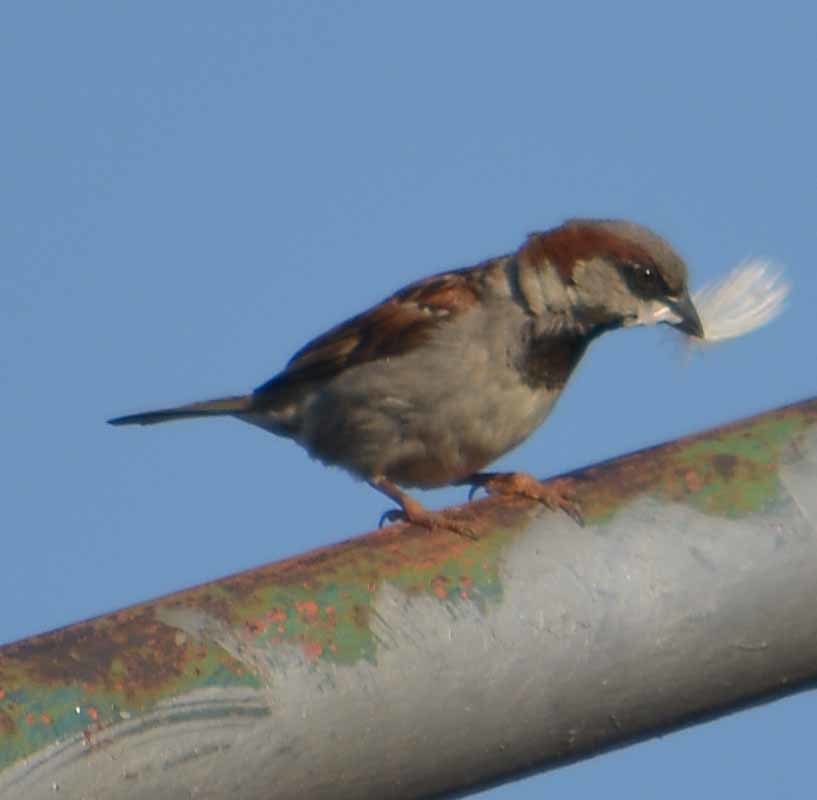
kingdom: Animalia
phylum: Chordata
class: Aves
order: Passeriformes
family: Passeridae
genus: Passer
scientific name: Passer domesticus
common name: House sparrow
